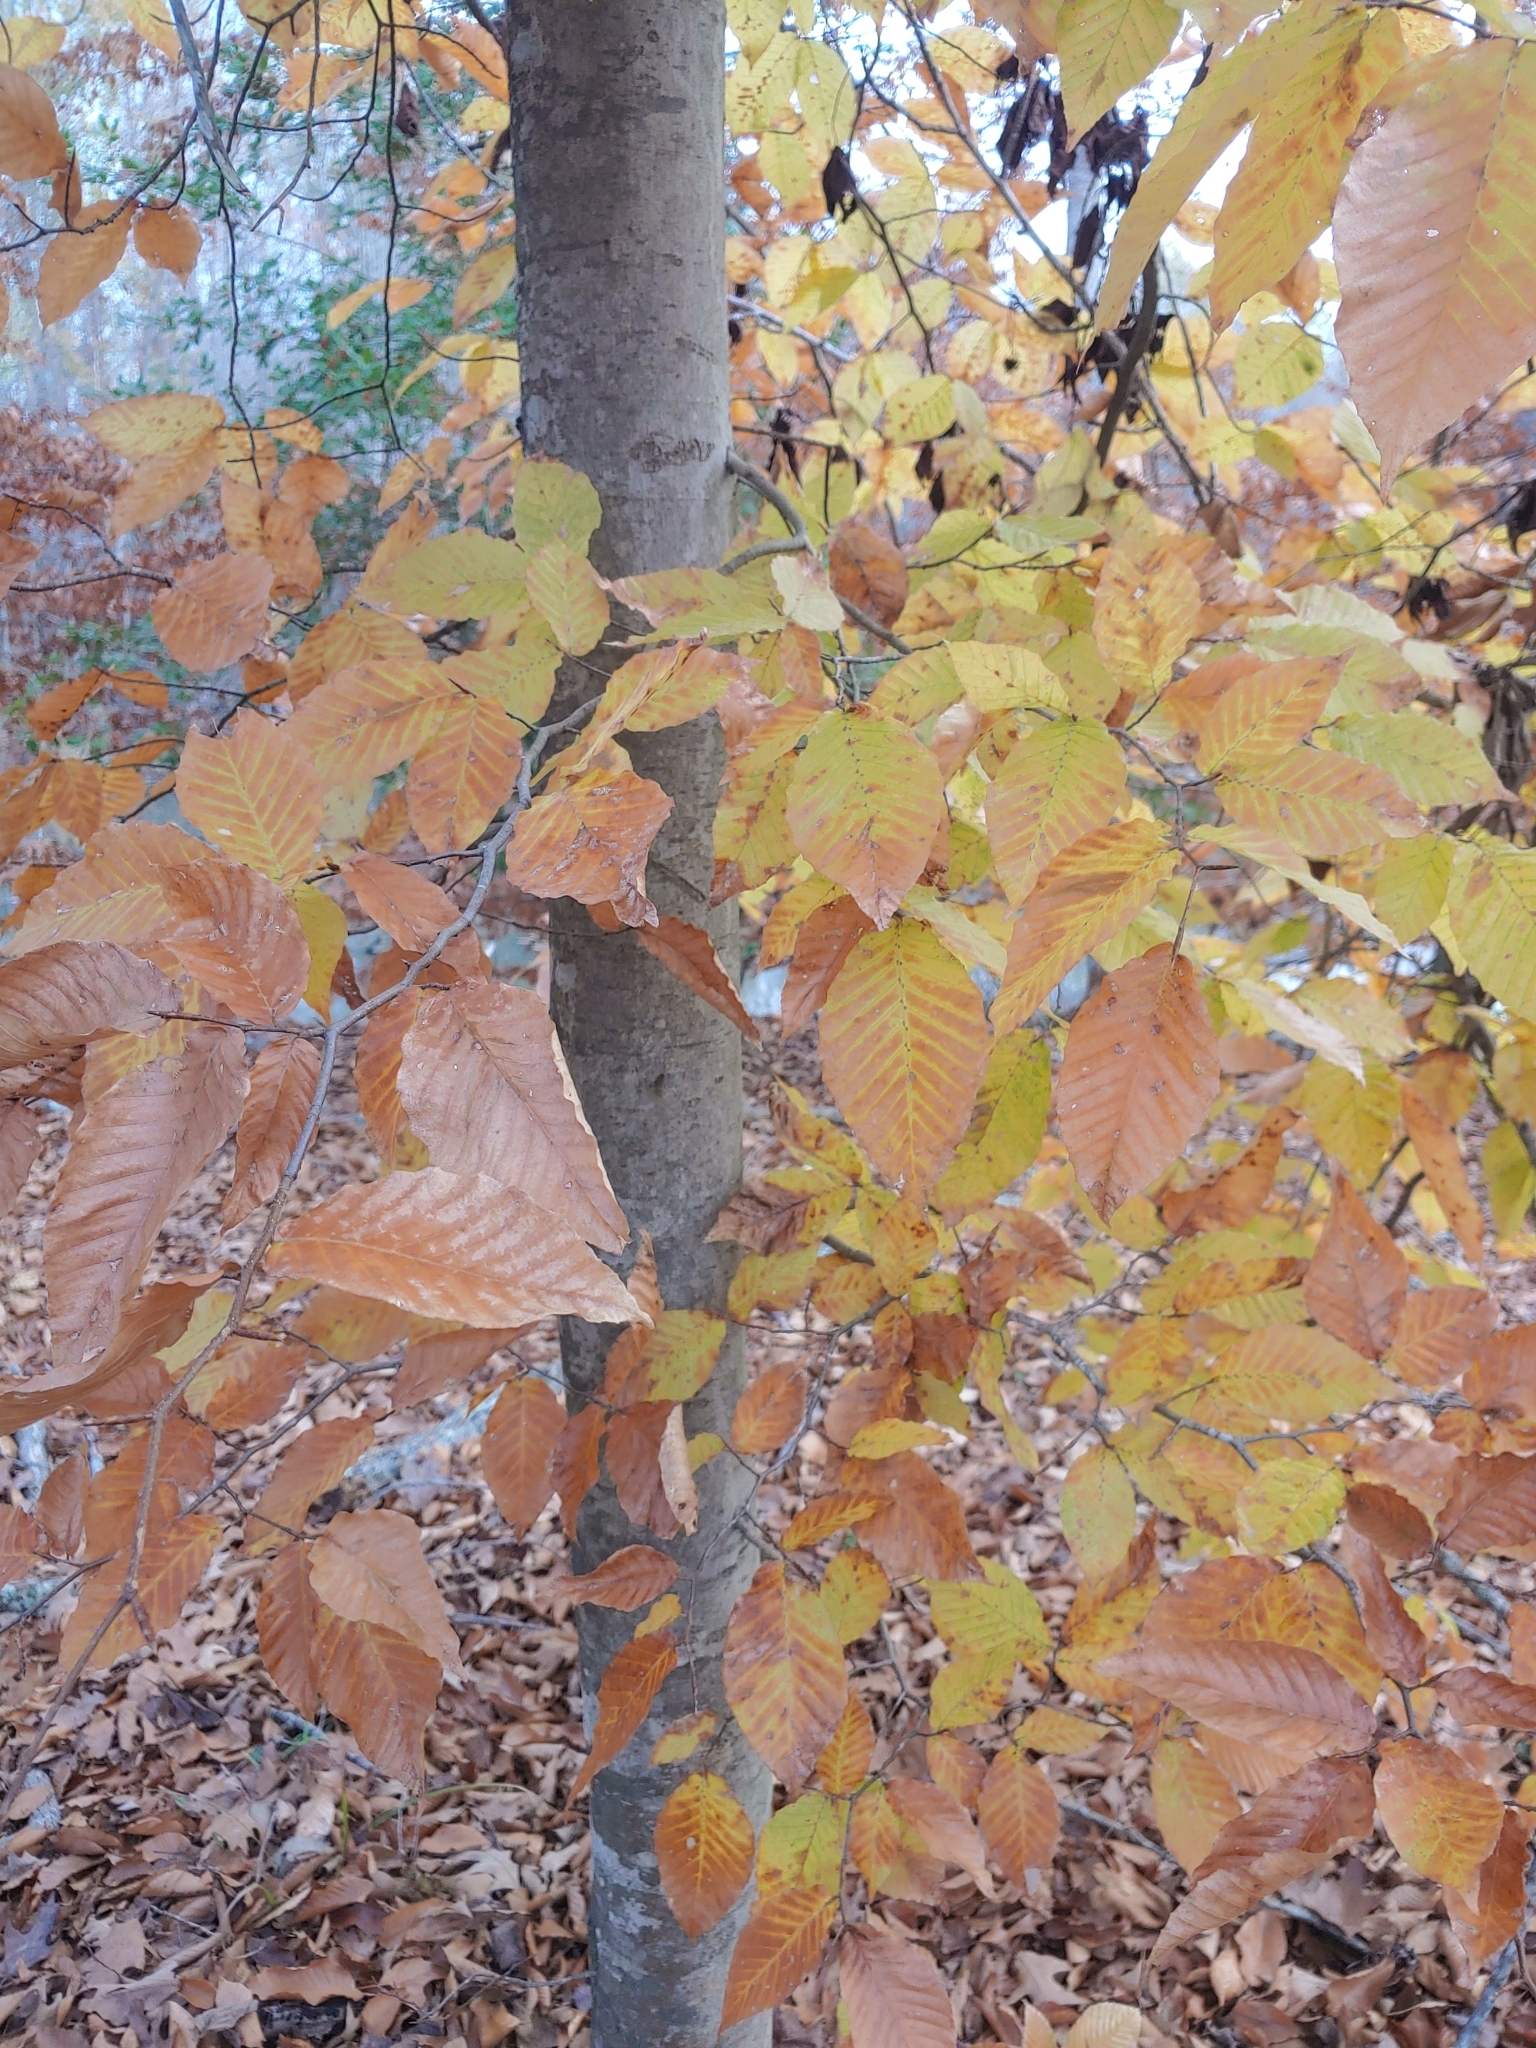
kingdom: Plantae
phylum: Tracheophyta
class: Magnoliopsida
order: Fagales
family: Fagaceae
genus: Fagus
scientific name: Fagus grandifolia
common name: American beech
